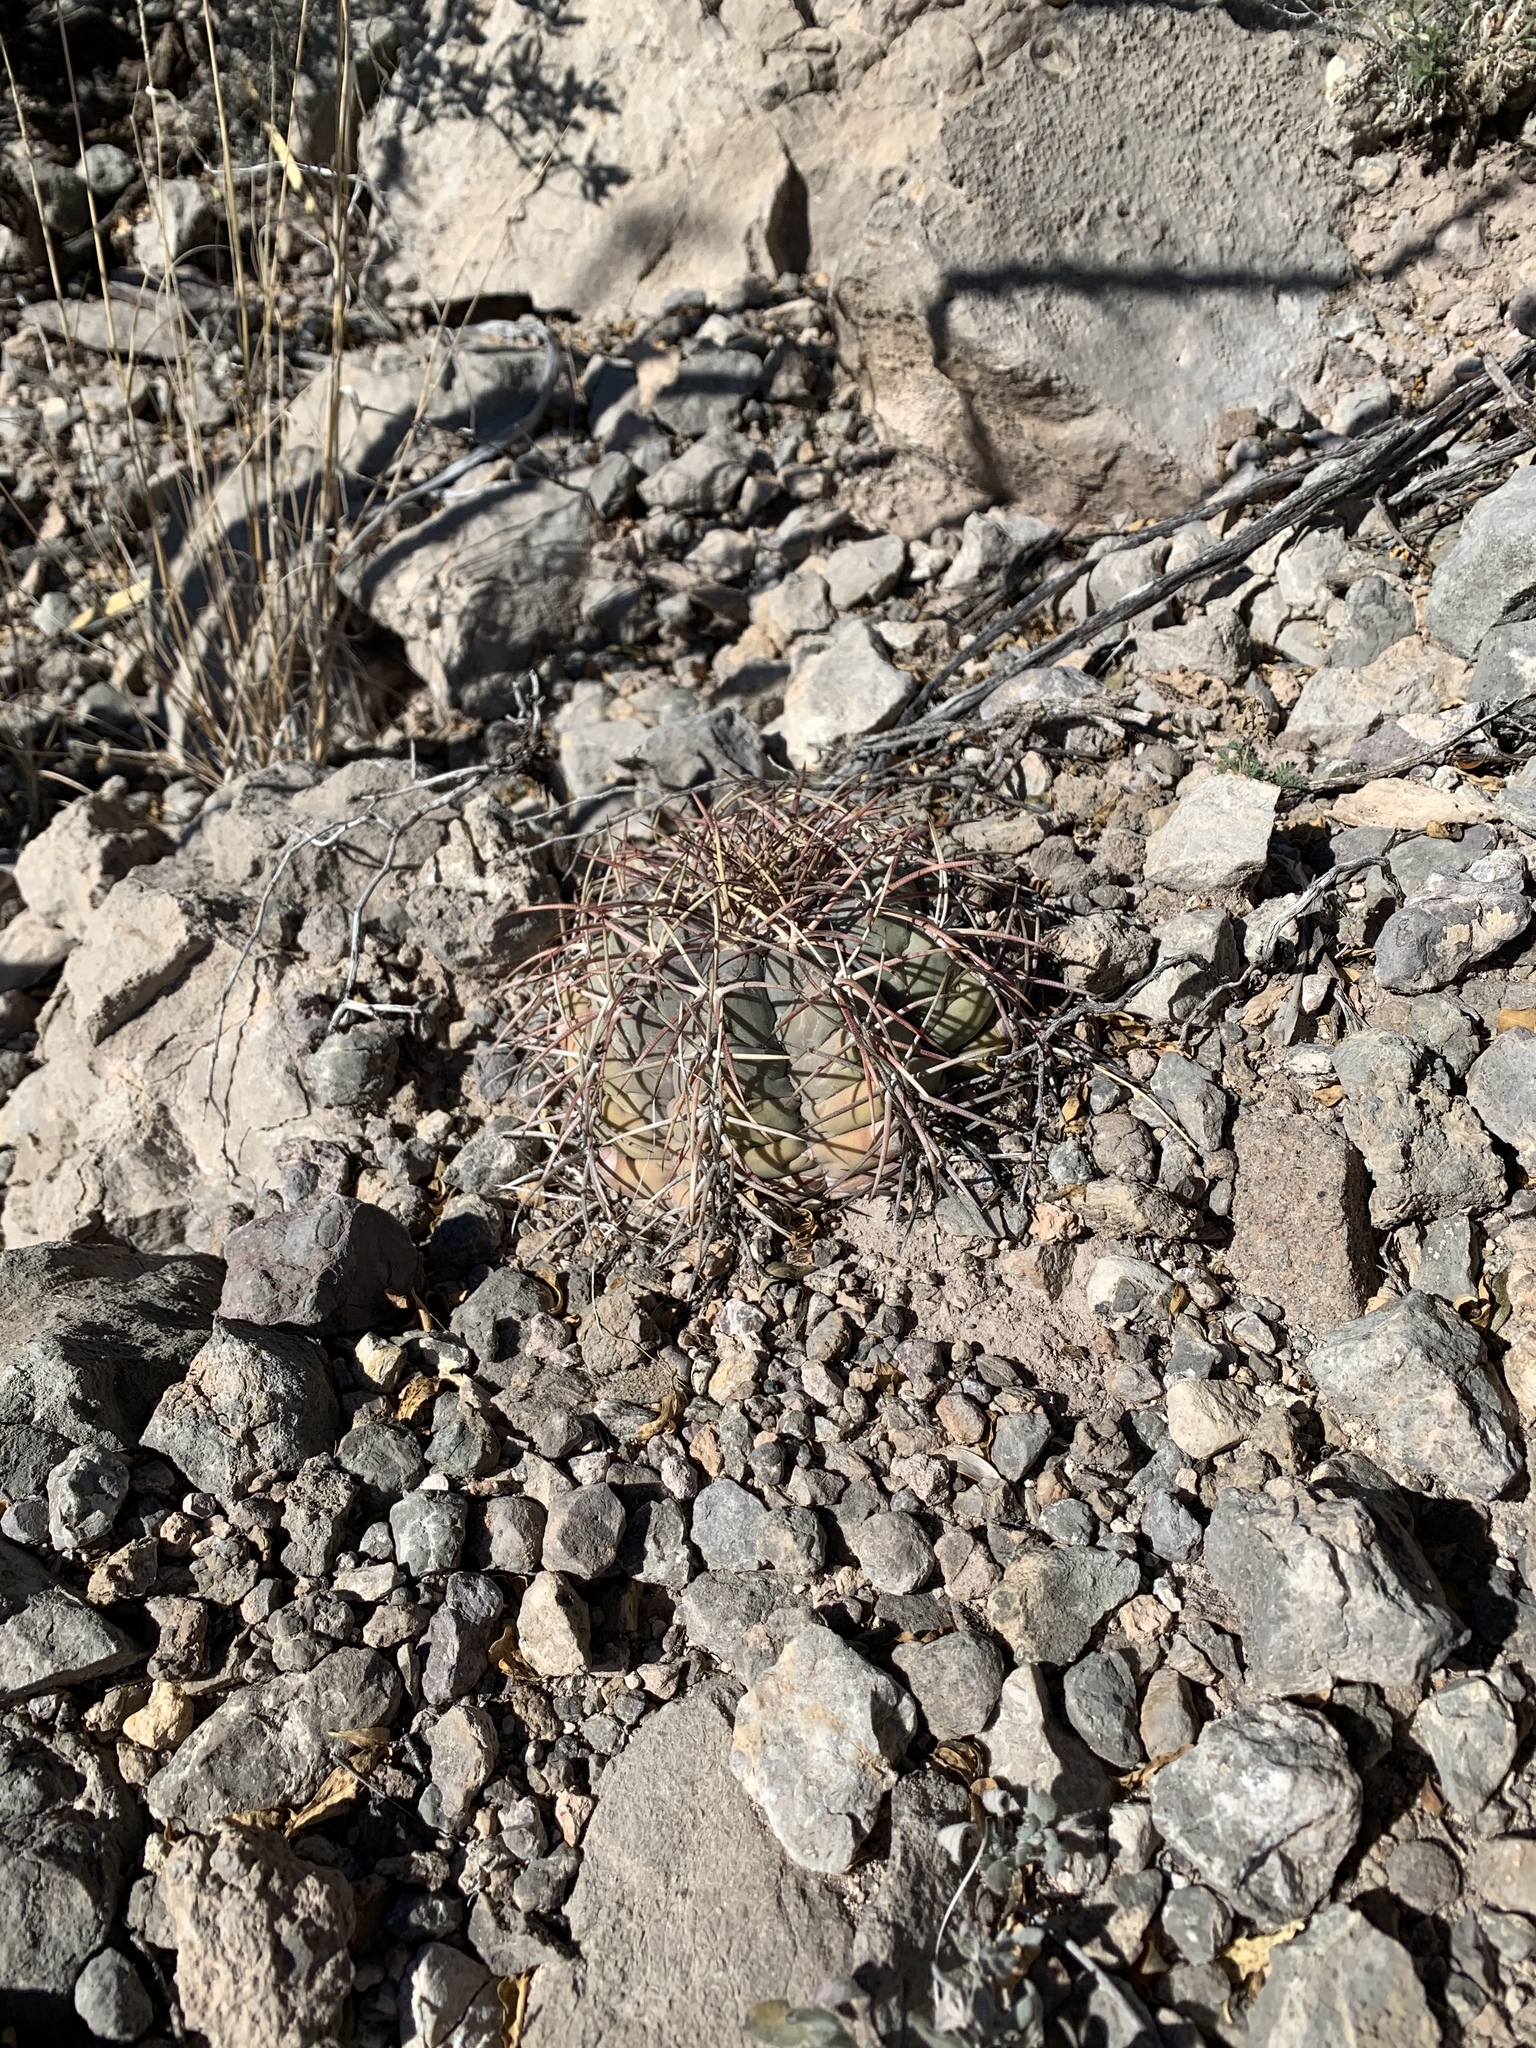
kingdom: Plantae
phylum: Tracheophyta
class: Magnoliopsida
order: Caryophyllales
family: Cactaceae
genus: Echinocactus
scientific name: Echinocactus horizonthalonius
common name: Devilshead
